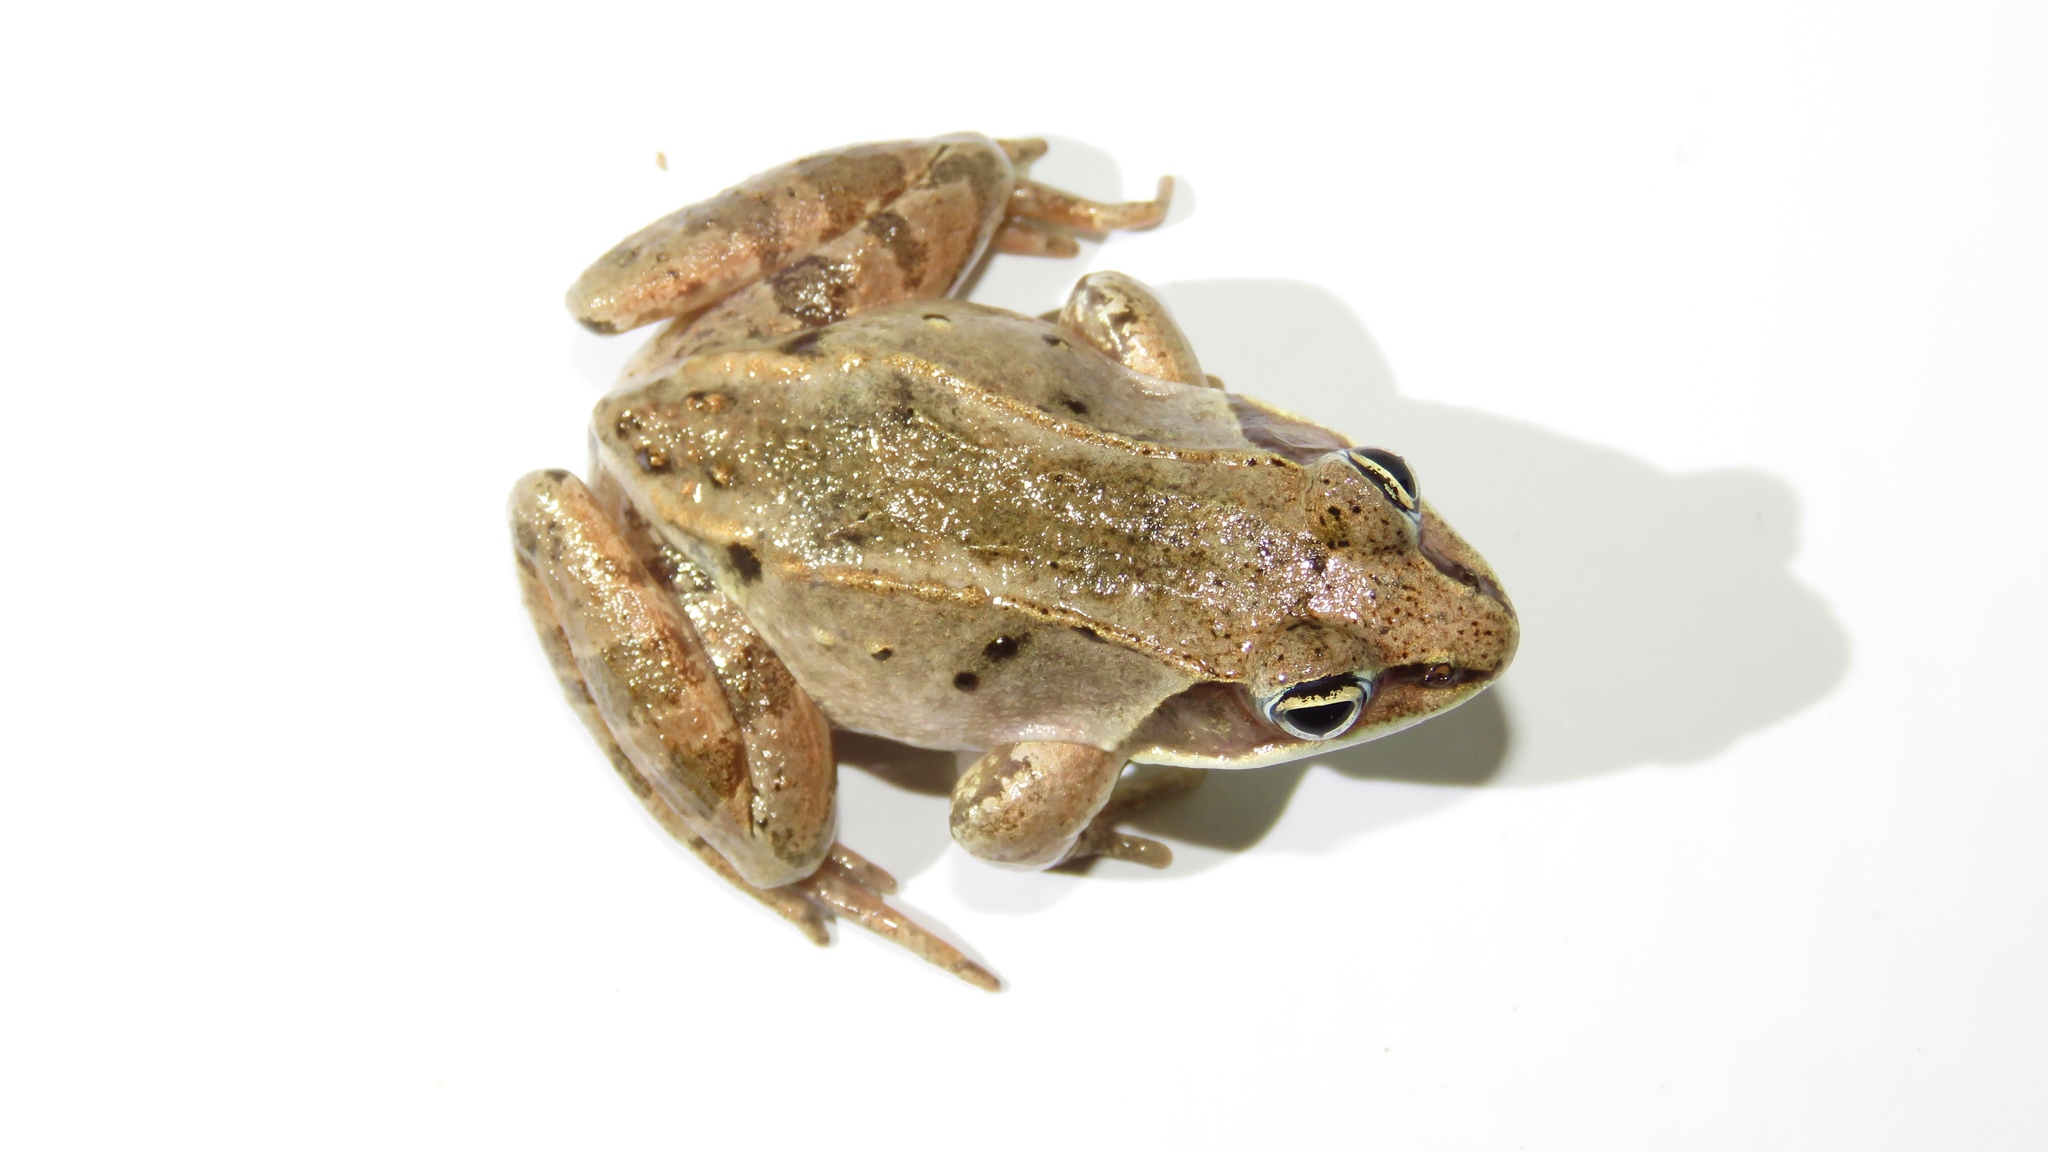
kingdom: Animalia
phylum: Chordata
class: Amphibia
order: Anura
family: Ranidae
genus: Lithobates
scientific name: Lithobates sylvaticus
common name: Wood frog
